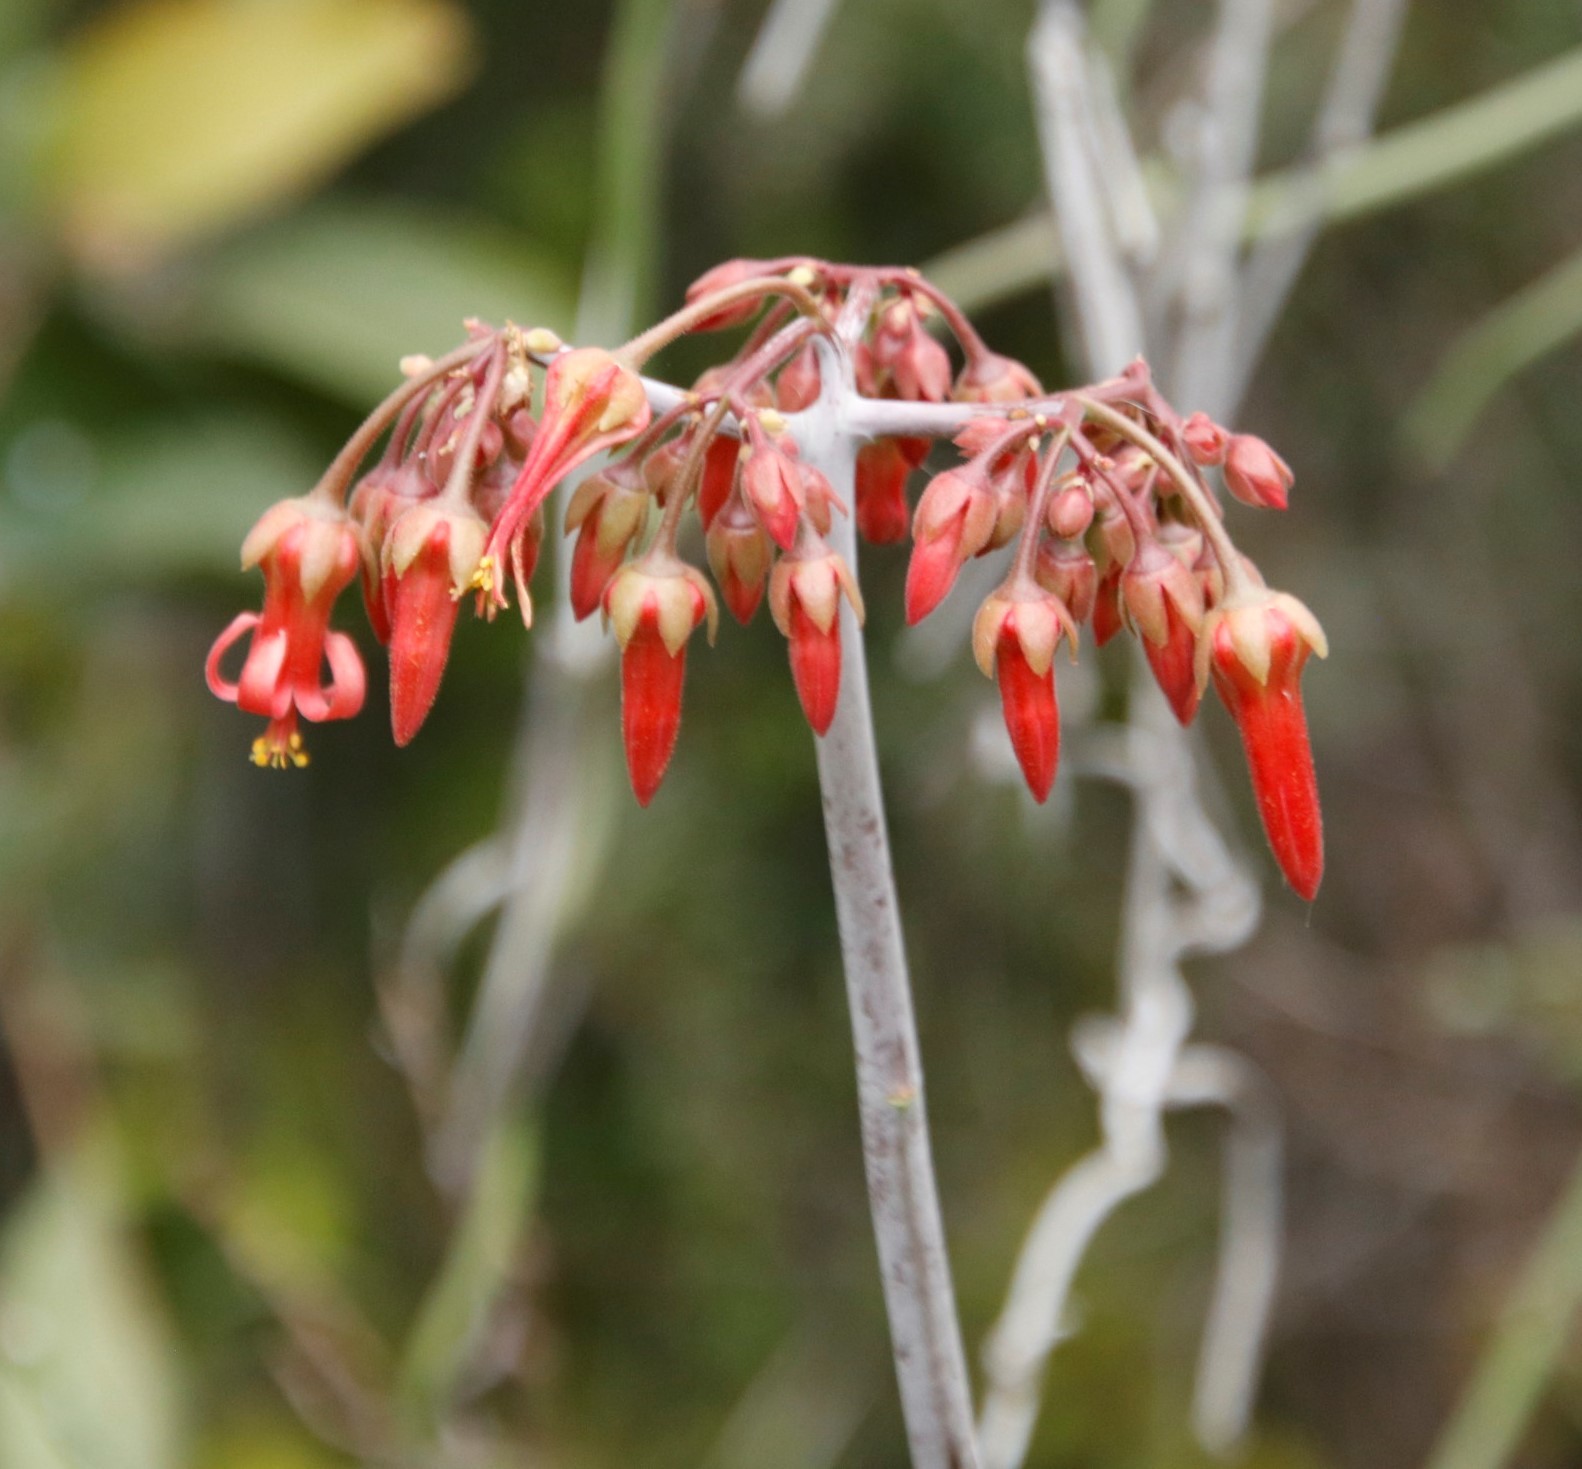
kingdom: Plantae
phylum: Tracheophyta
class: Magnoliopsida
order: Saxifragales
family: Crassulaceae
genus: Cotyledon
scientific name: Cotyledon barbeyi
